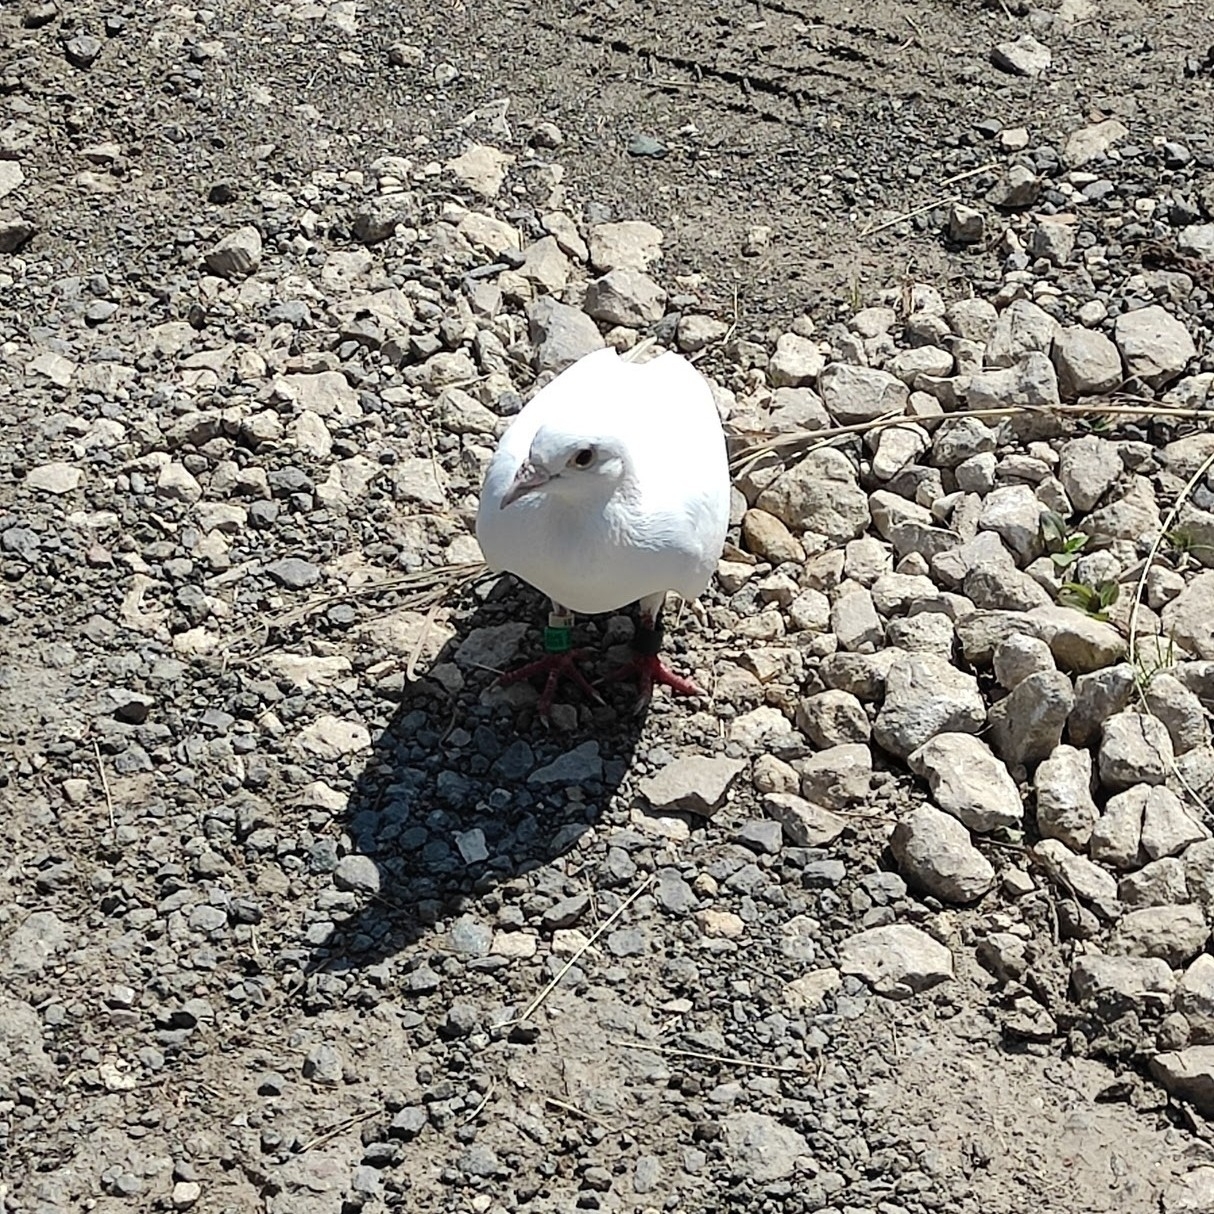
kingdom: Animalia
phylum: Chordata
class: Aves
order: Columbiformes
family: Columbidae
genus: Columba
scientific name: Columba livia
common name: Rock pigeon
